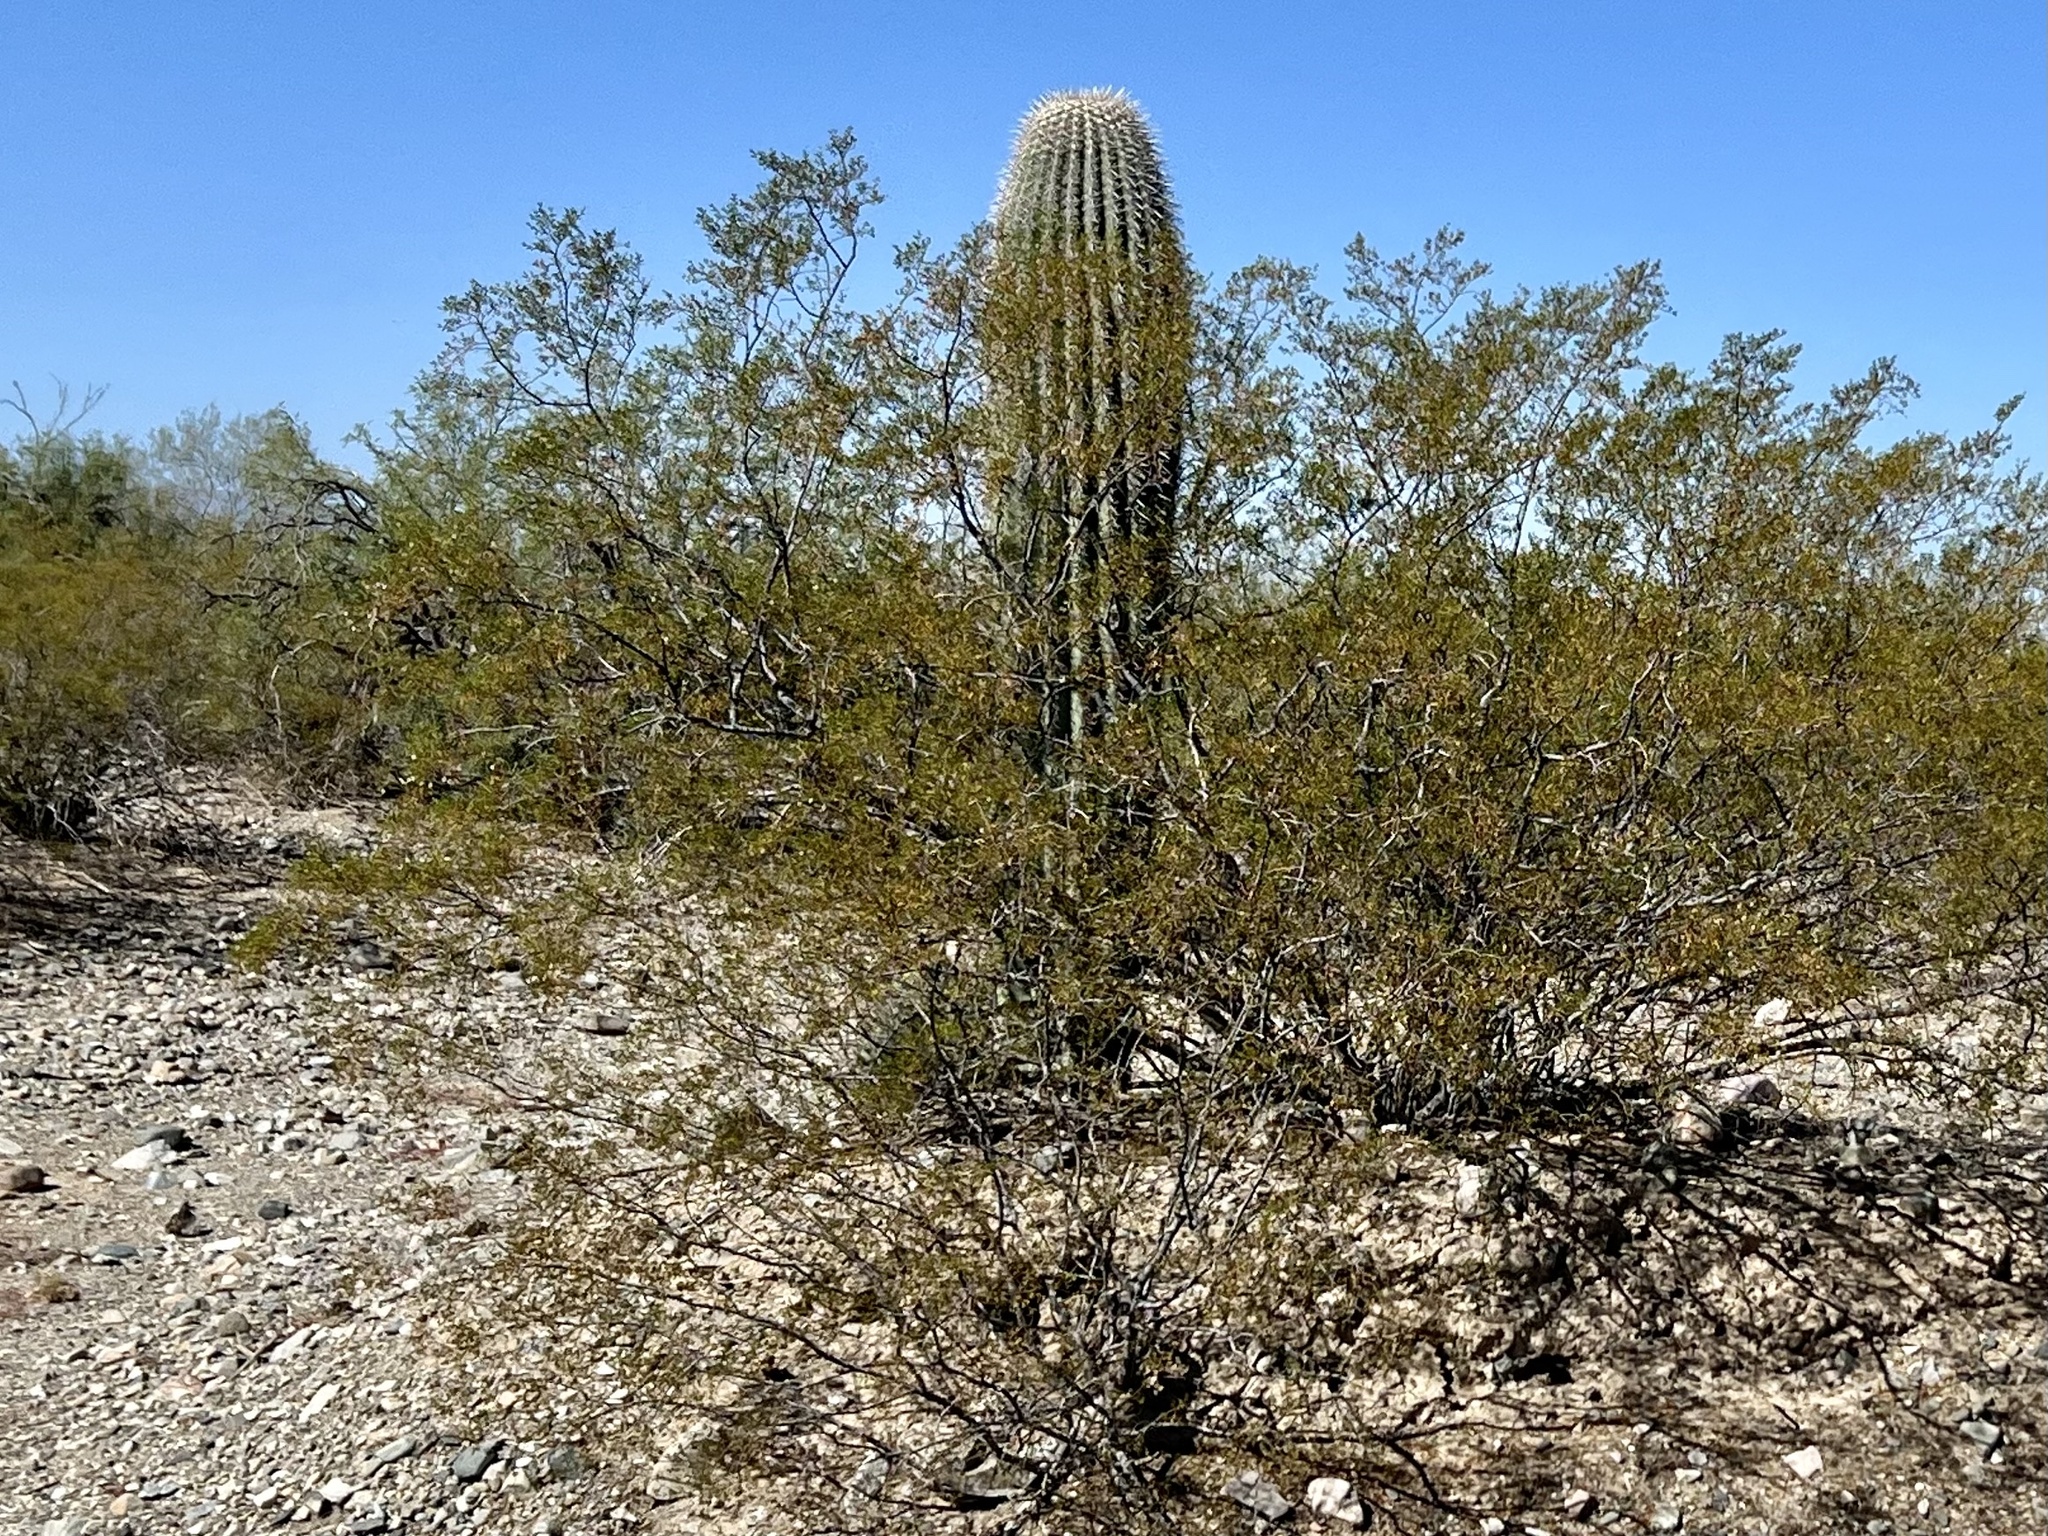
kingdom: Plantae
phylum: Tracheophyta
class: Magnoliopsida
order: Caryophyllales
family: Cactaceae
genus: Carnegiea
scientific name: Carnegiea gigantea
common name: Saguaro
